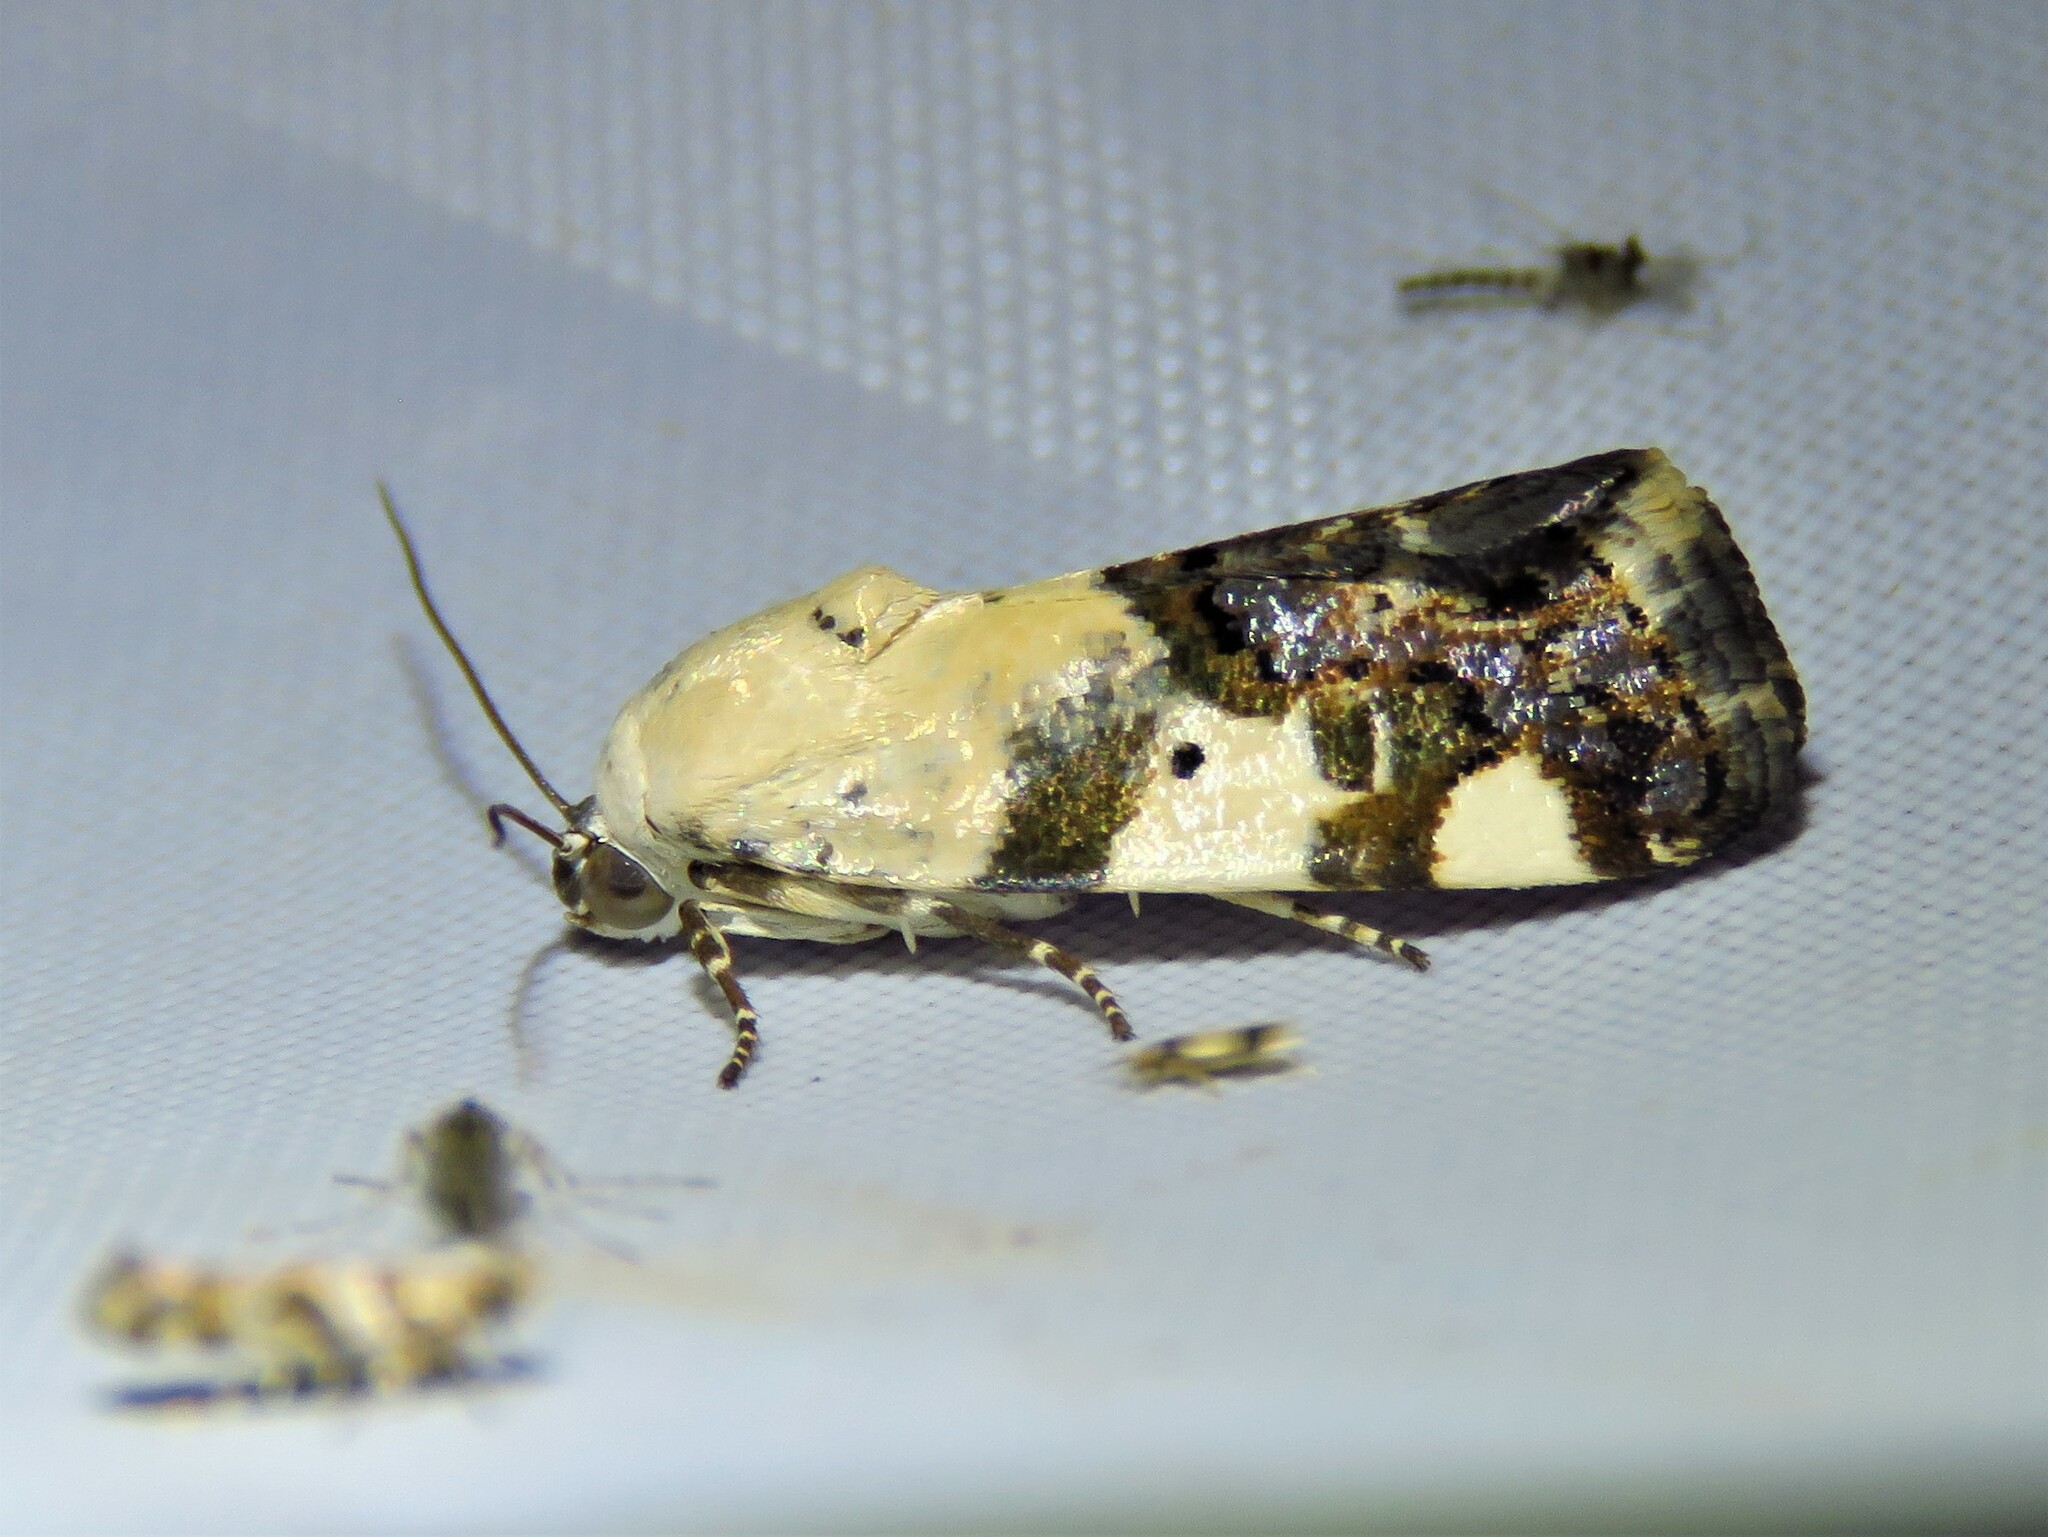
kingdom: Animalia
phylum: Arthropoda
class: Insecta
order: Lepidoptera
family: Noctuidae
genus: Acontia
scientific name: Acontia aprica
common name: Nun
